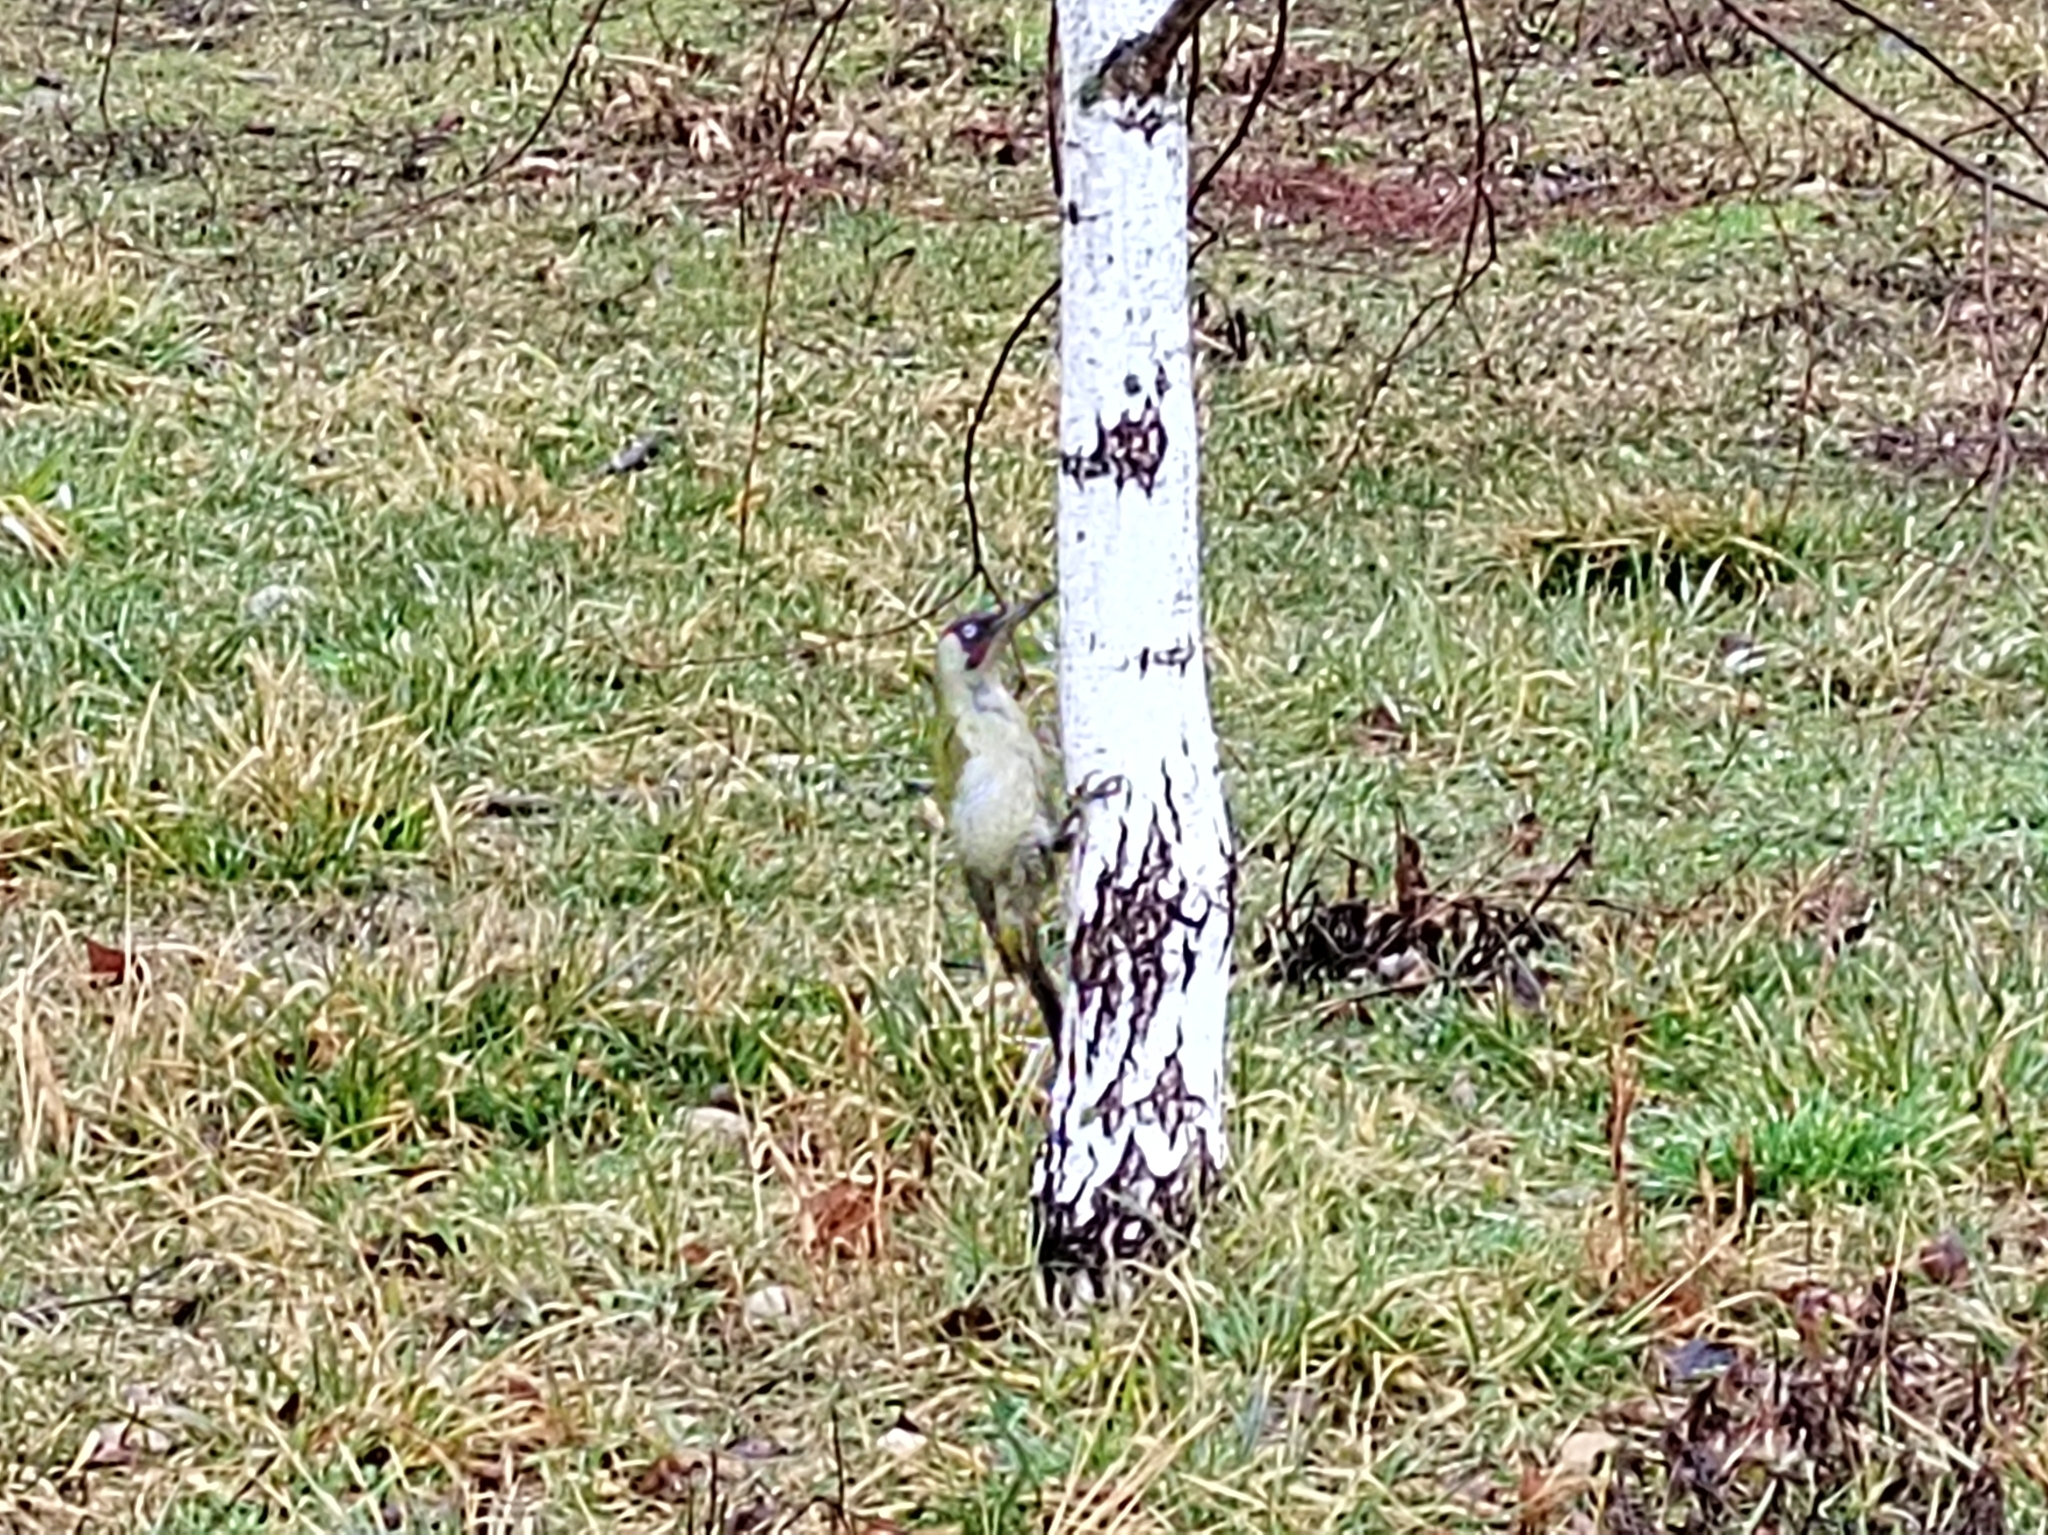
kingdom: Animalia
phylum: Chordata
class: Aves
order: Piciformes
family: Picidae
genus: Picus
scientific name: Picus viridis
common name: European green woodpecker
